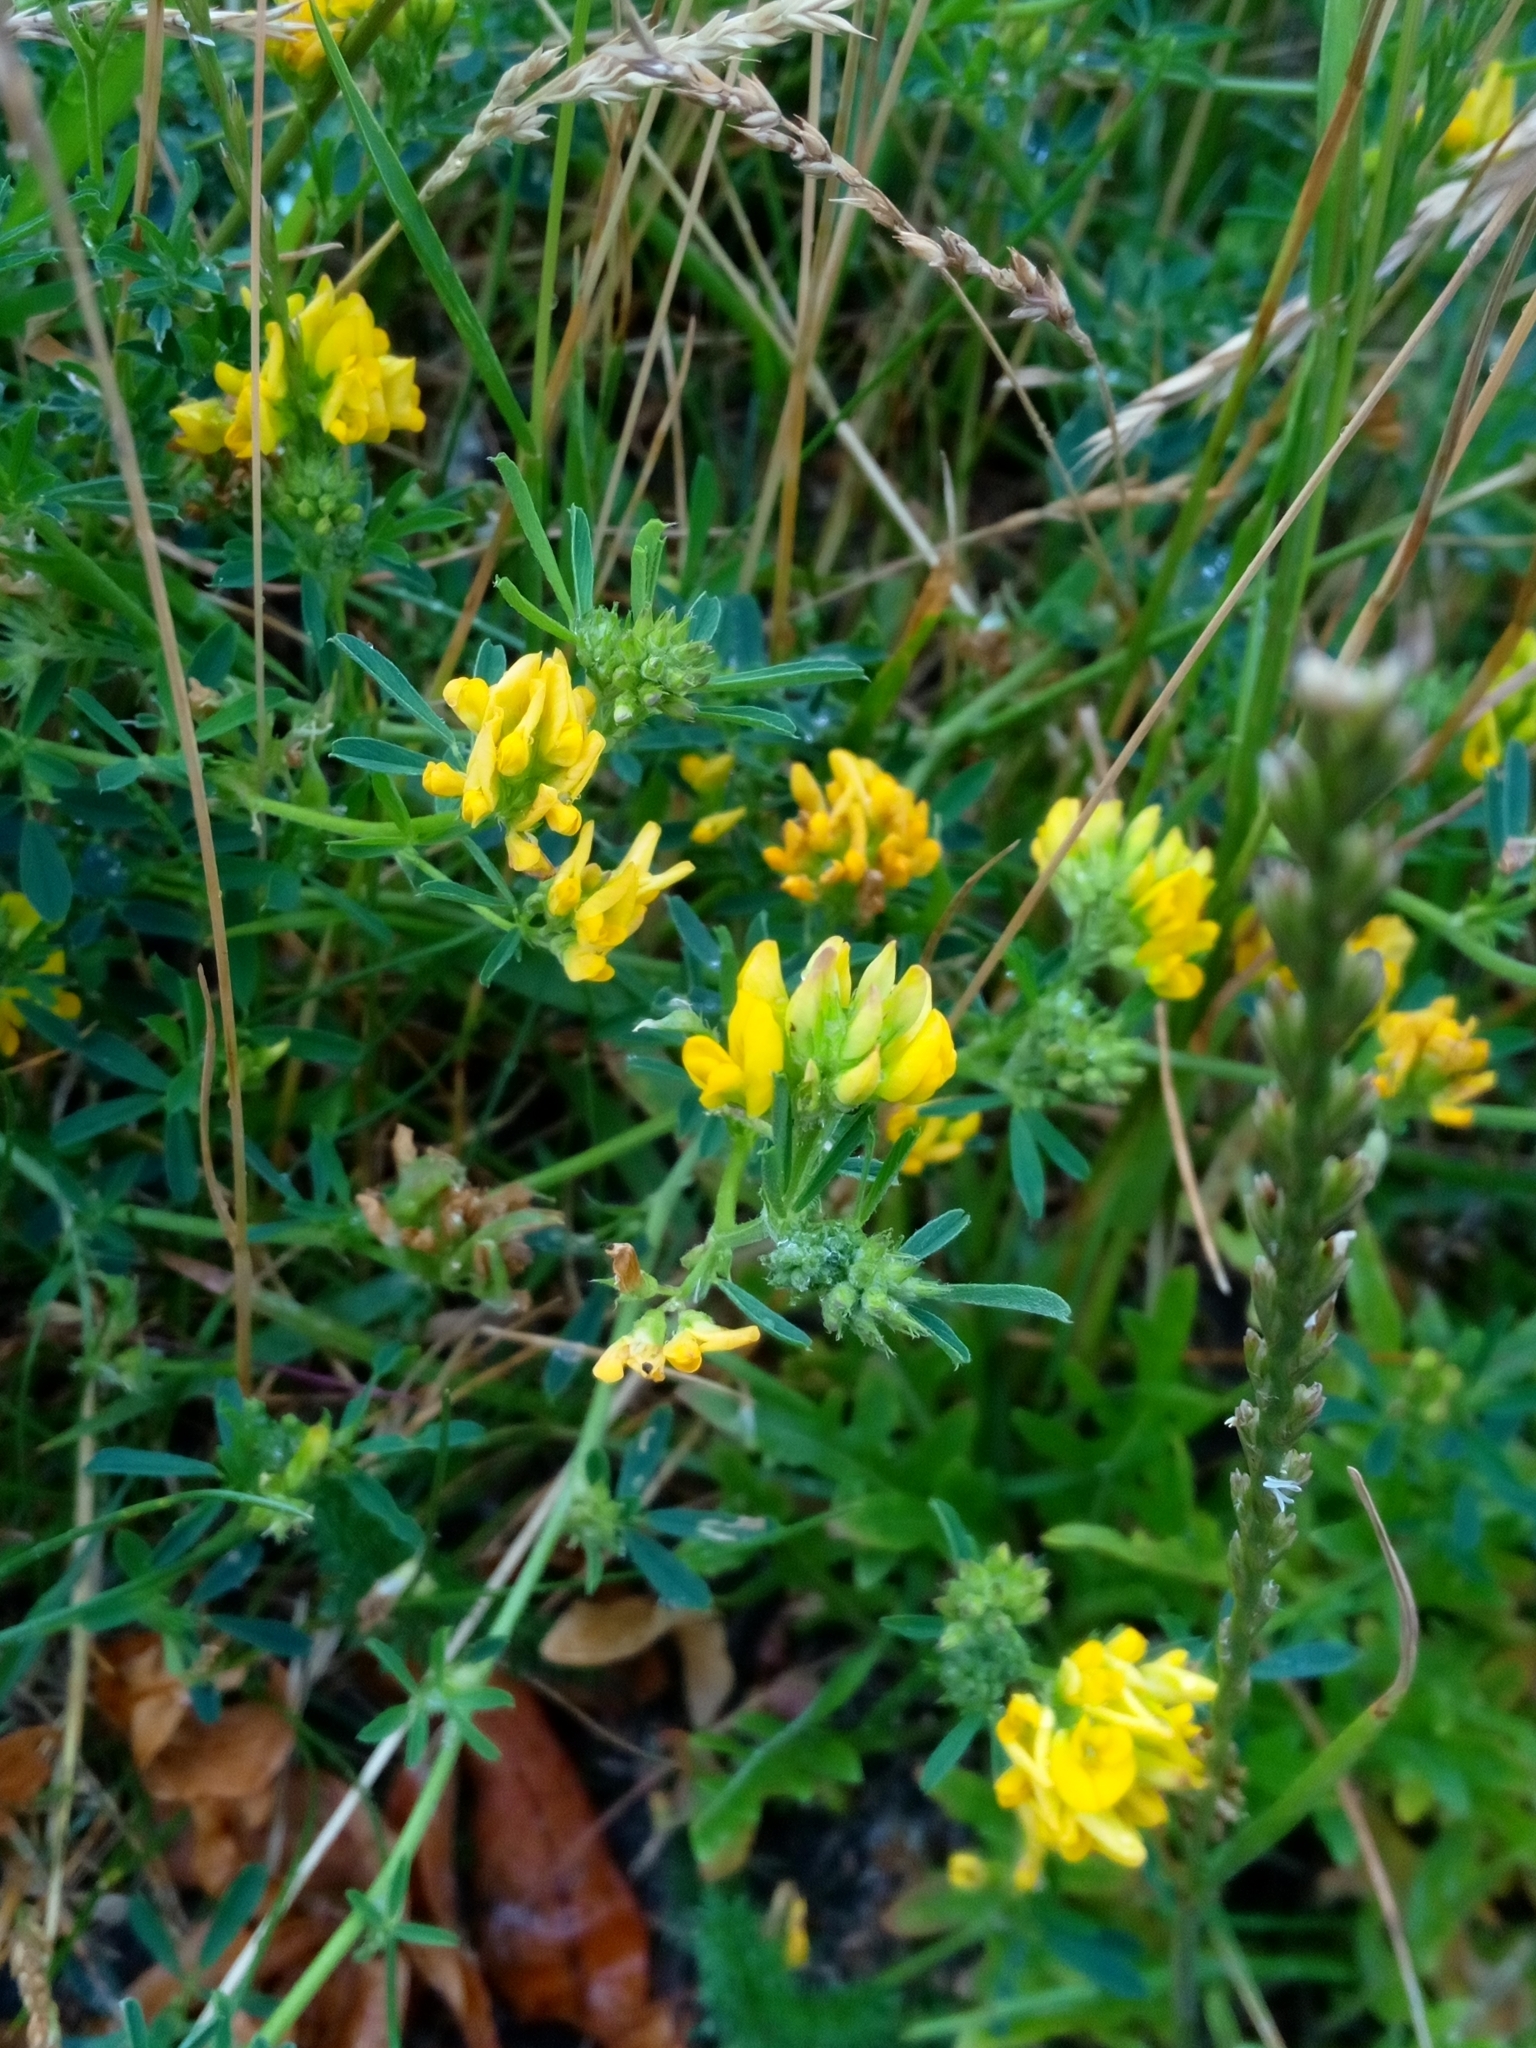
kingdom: Plantae
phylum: Tracheophyta
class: Magnoliopsida
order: Fabales
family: Fabaceae
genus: Medicago
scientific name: Medicago falcata
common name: Sickle medick
